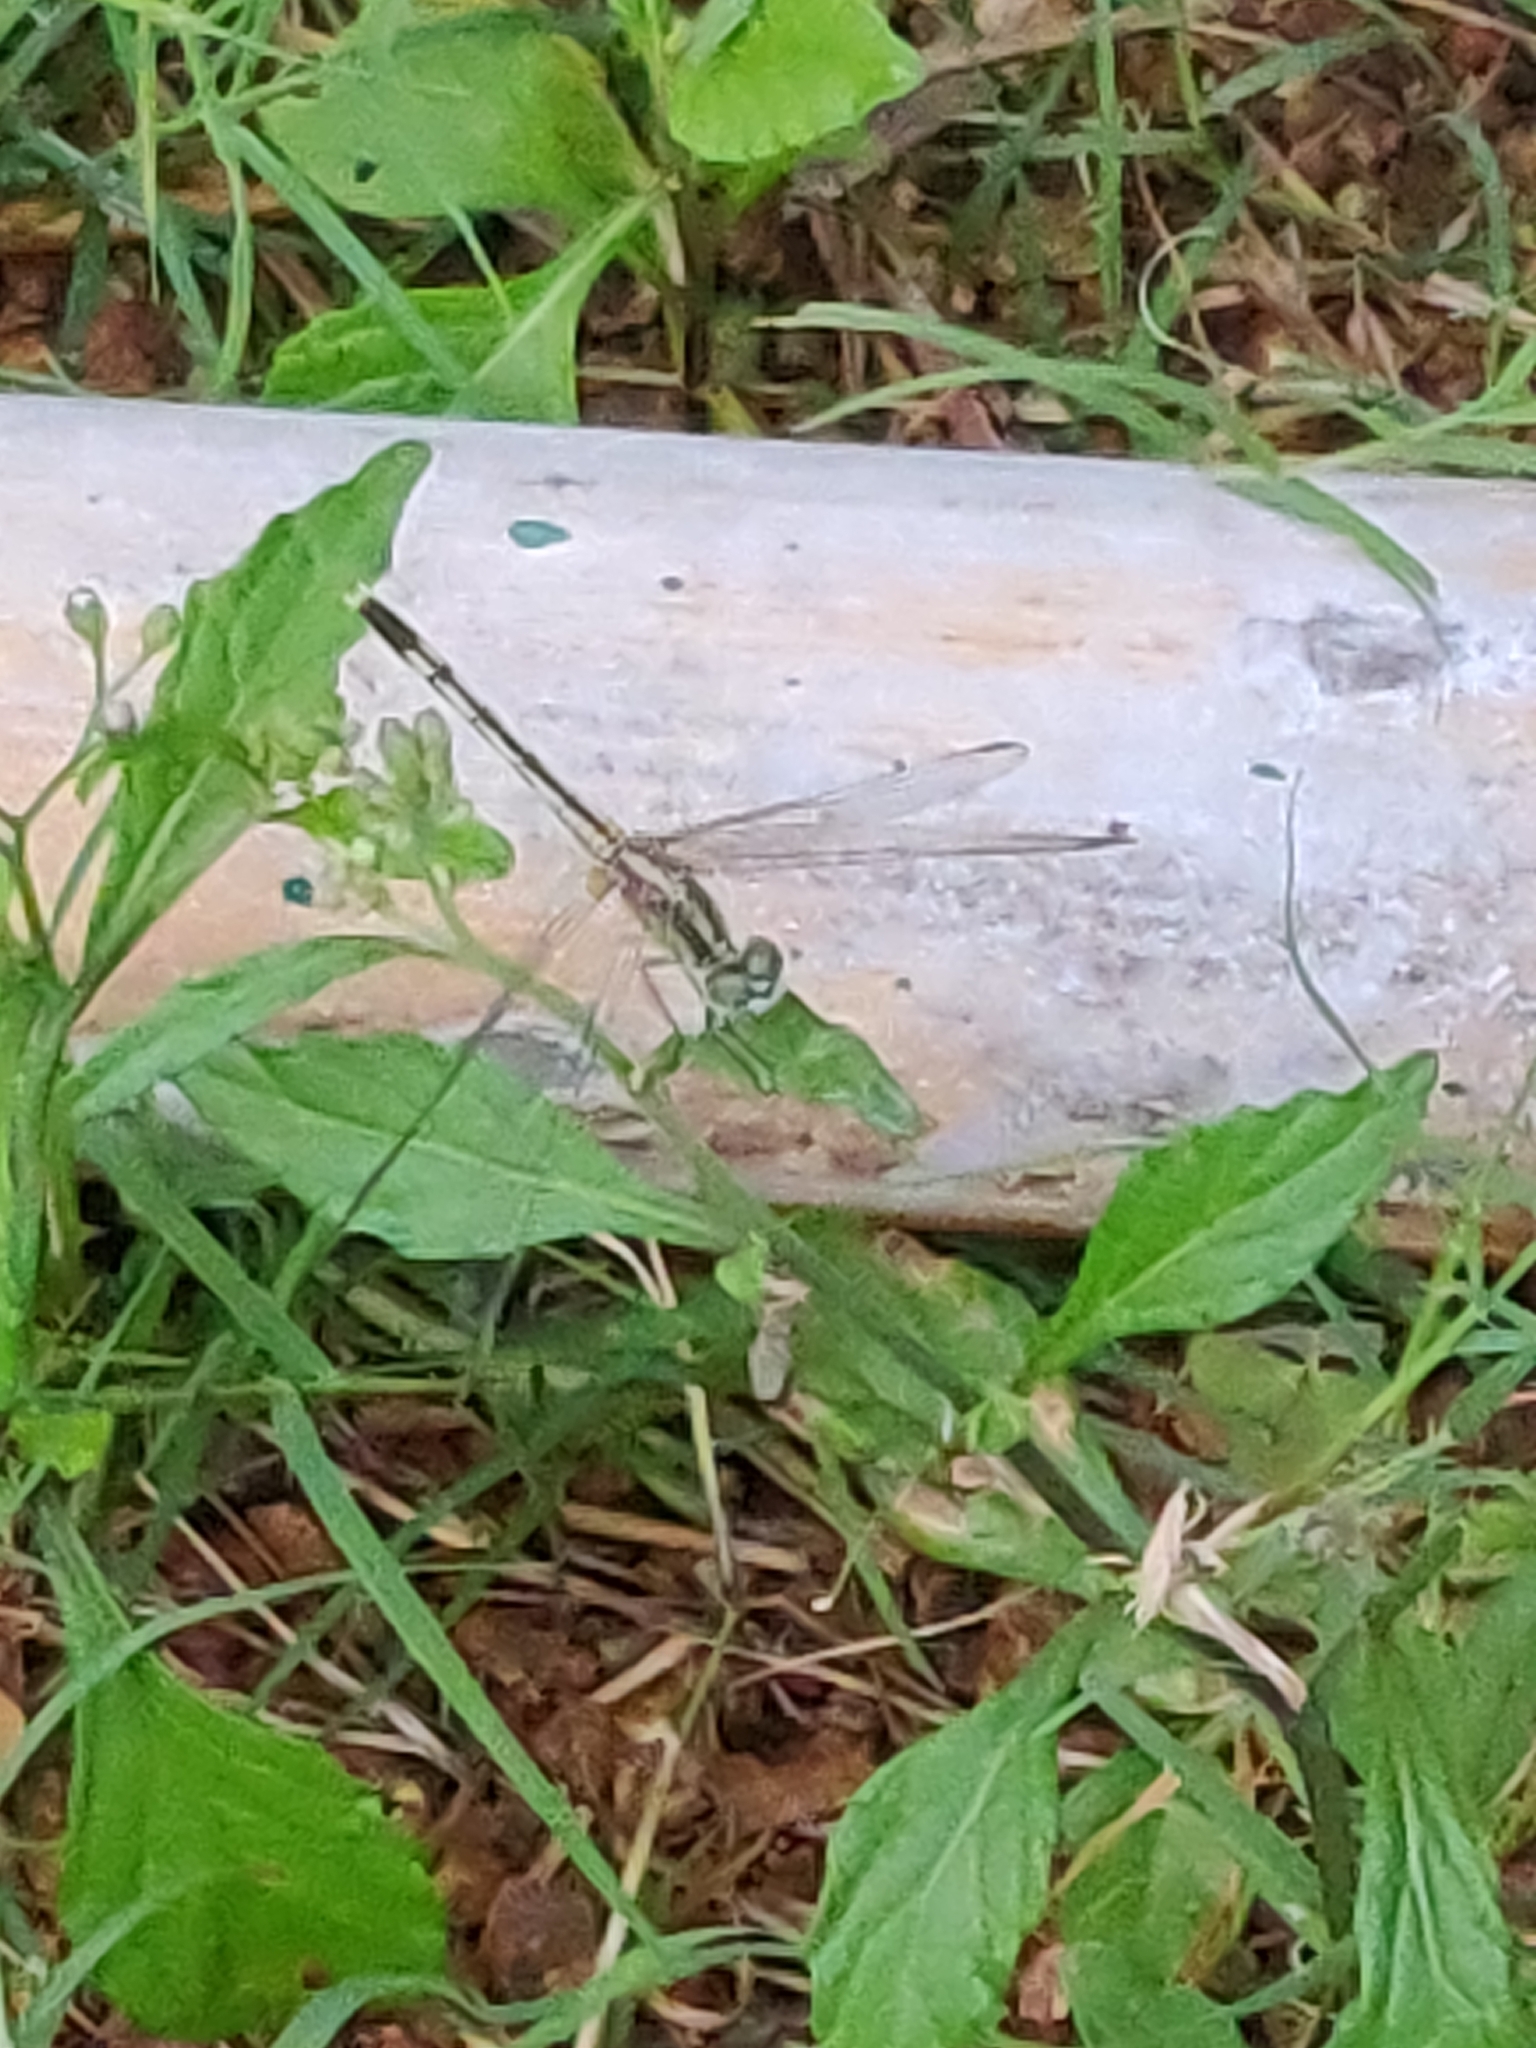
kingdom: Animalia
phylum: Arthropoda
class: Insecta
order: Odonata
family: Libellulidae
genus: Diplacodes
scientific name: Diplacodes trivialis
